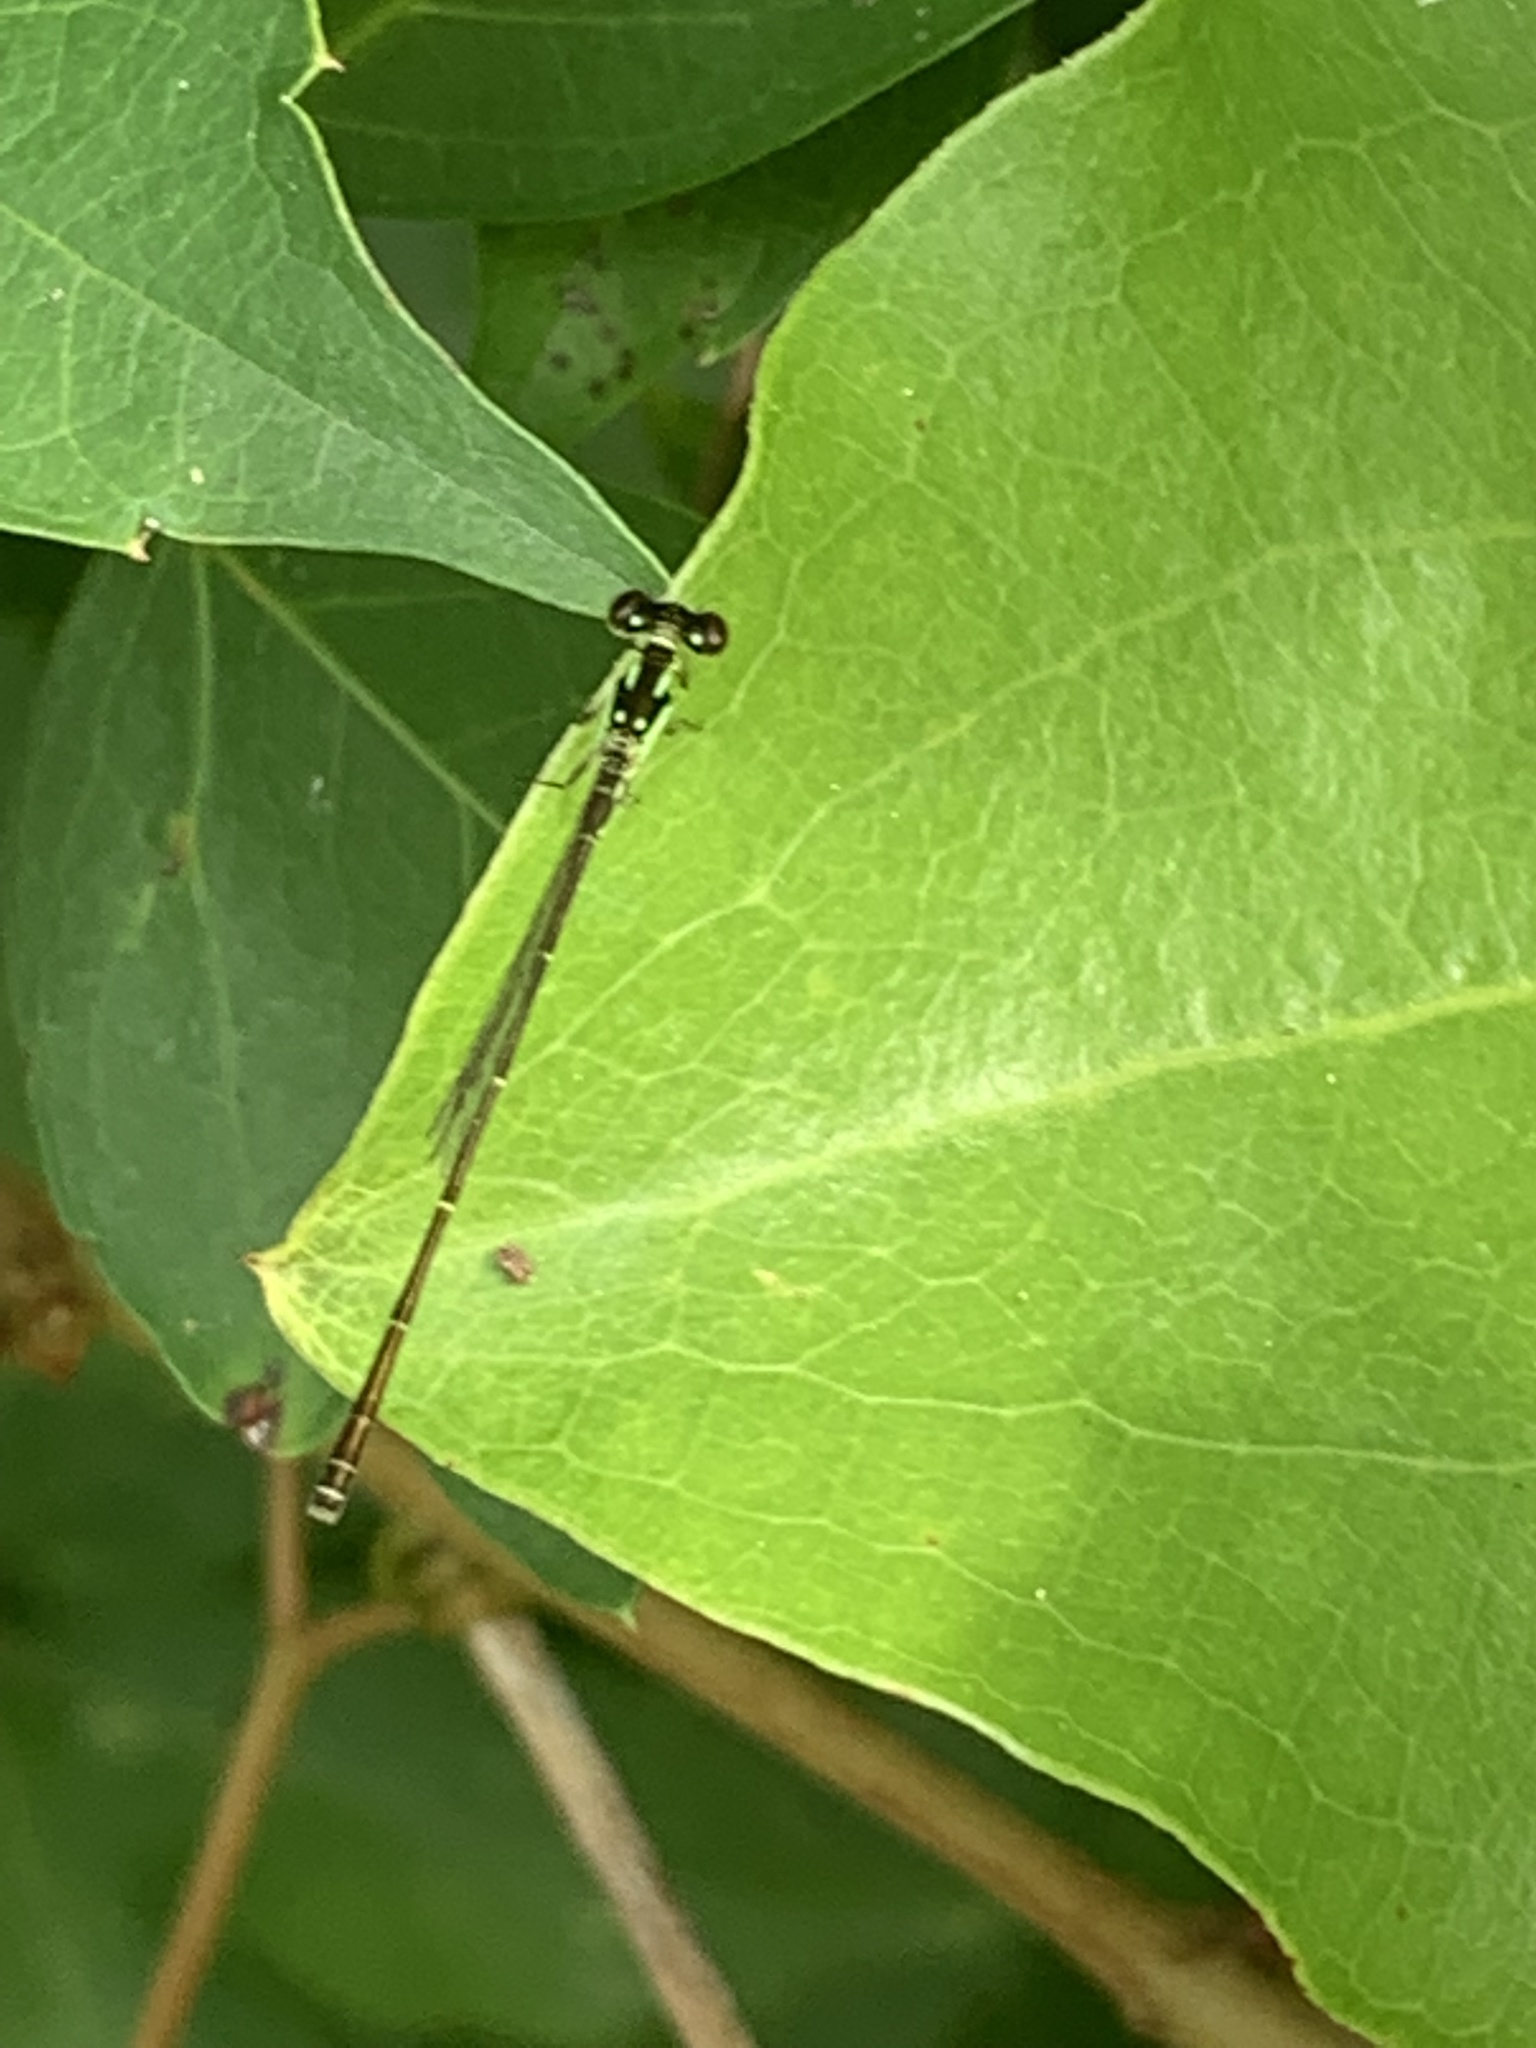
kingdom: Animalia
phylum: Arthropoda
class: Insecta
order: Odonata
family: Coenagrionidae
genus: Ischnura
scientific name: Ischnura posita
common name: Fragile forktail
